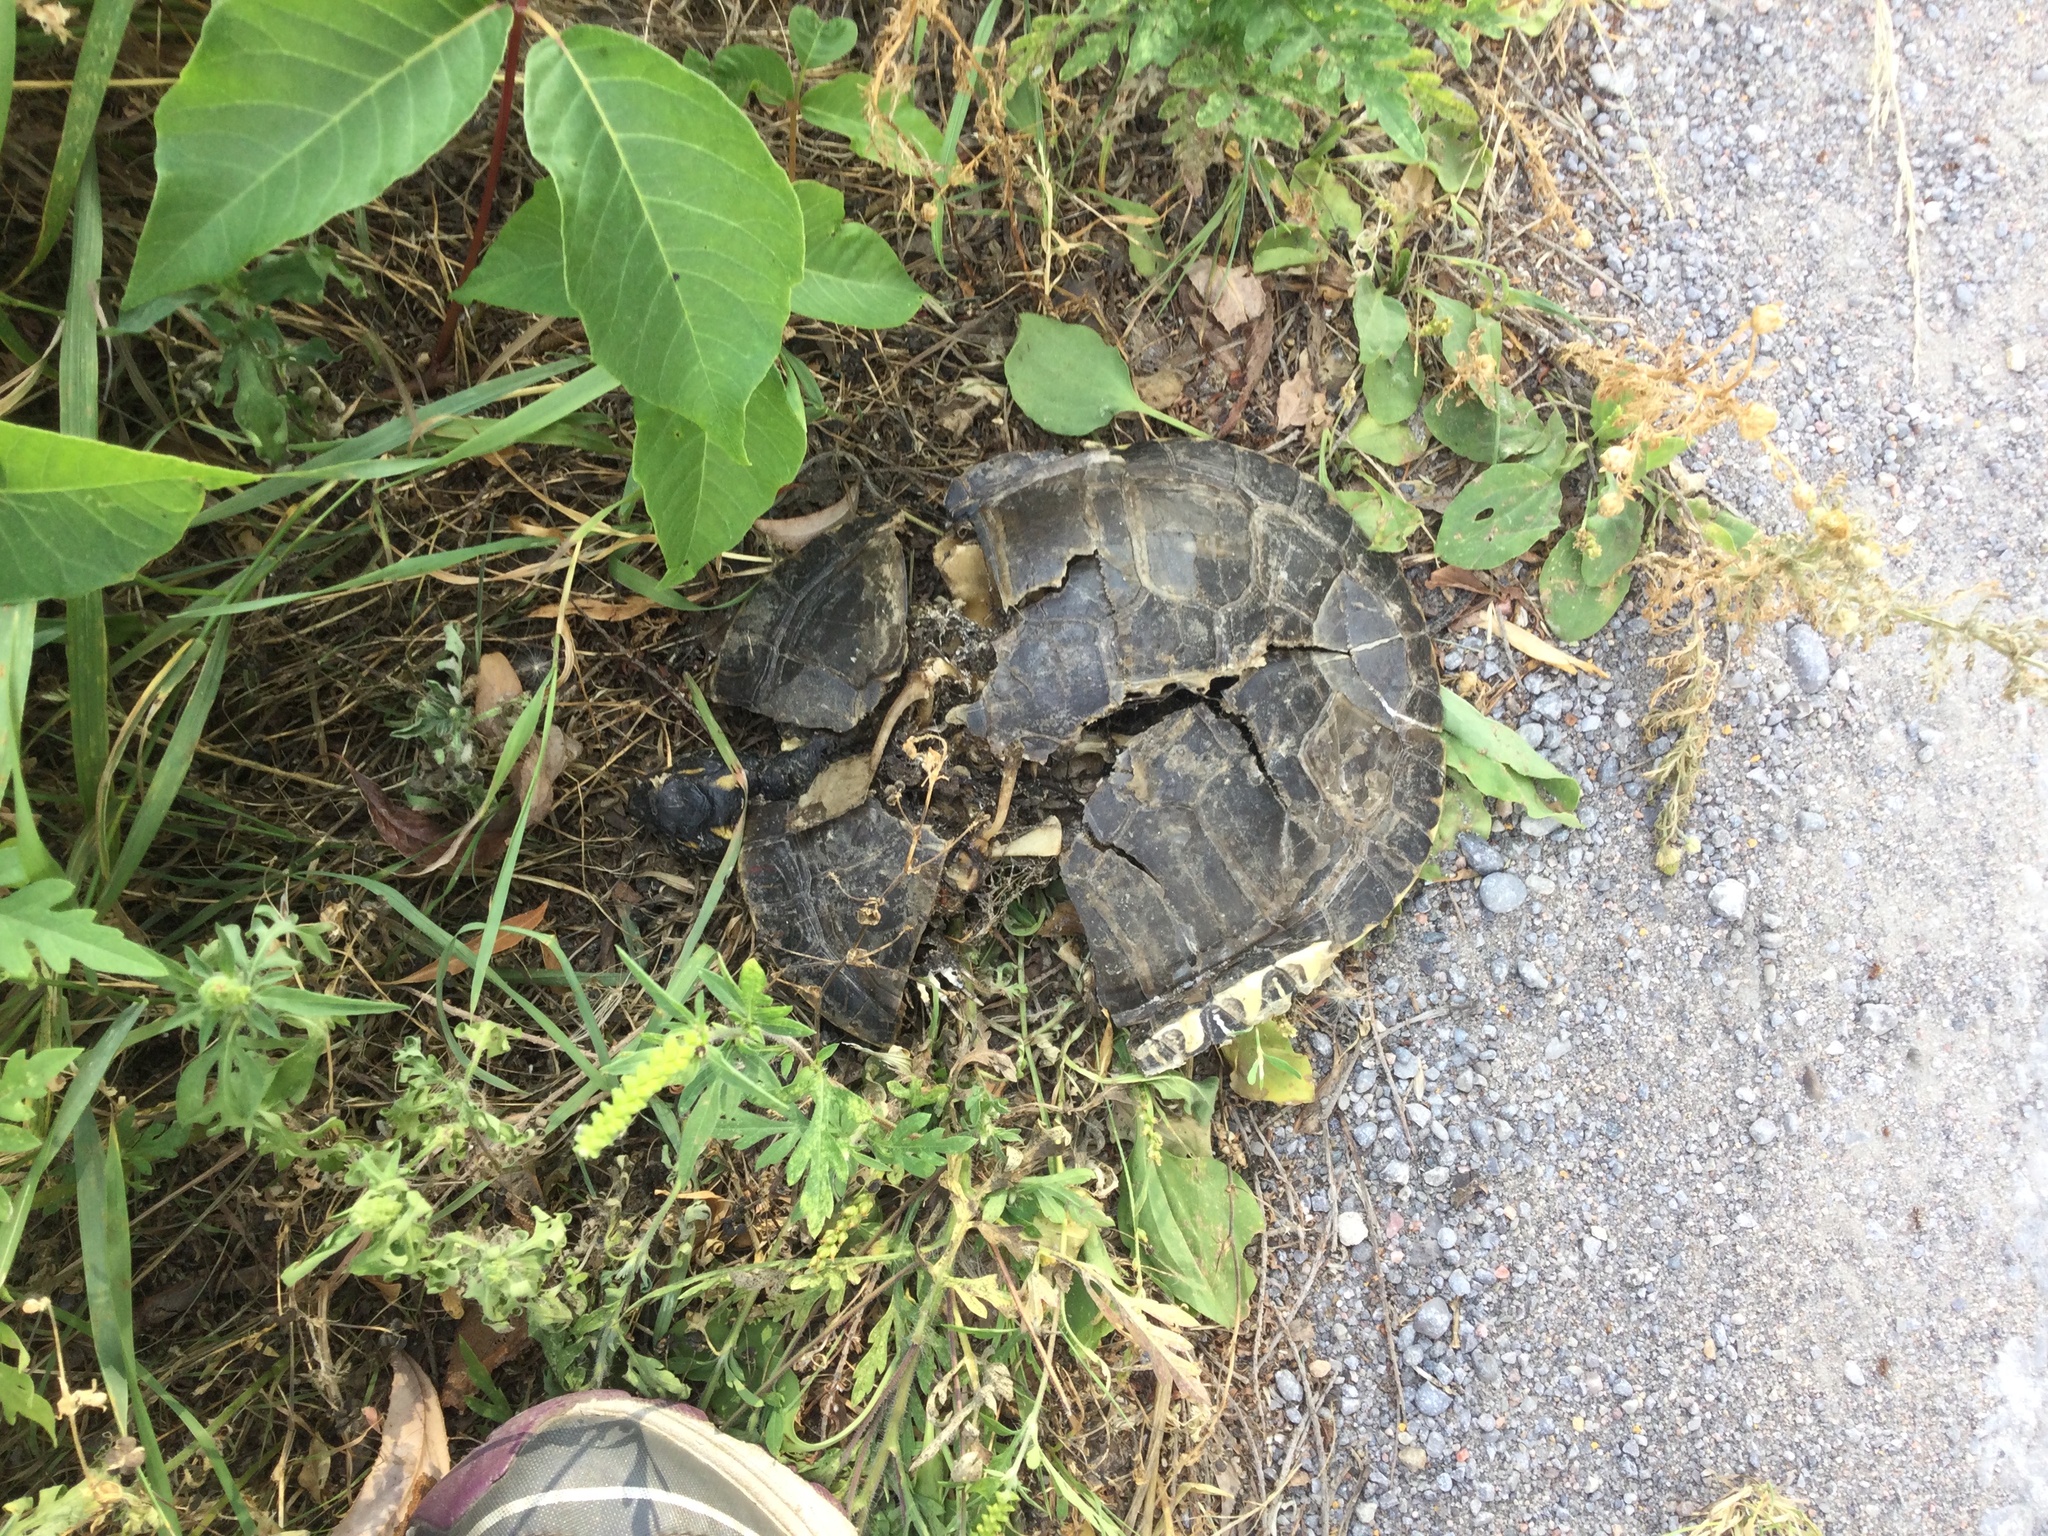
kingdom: Animalia
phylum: Chordata
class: Testudines
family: Emydidae
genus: Chrysemys
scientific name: Chrysemys picta
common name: Painted turtle
